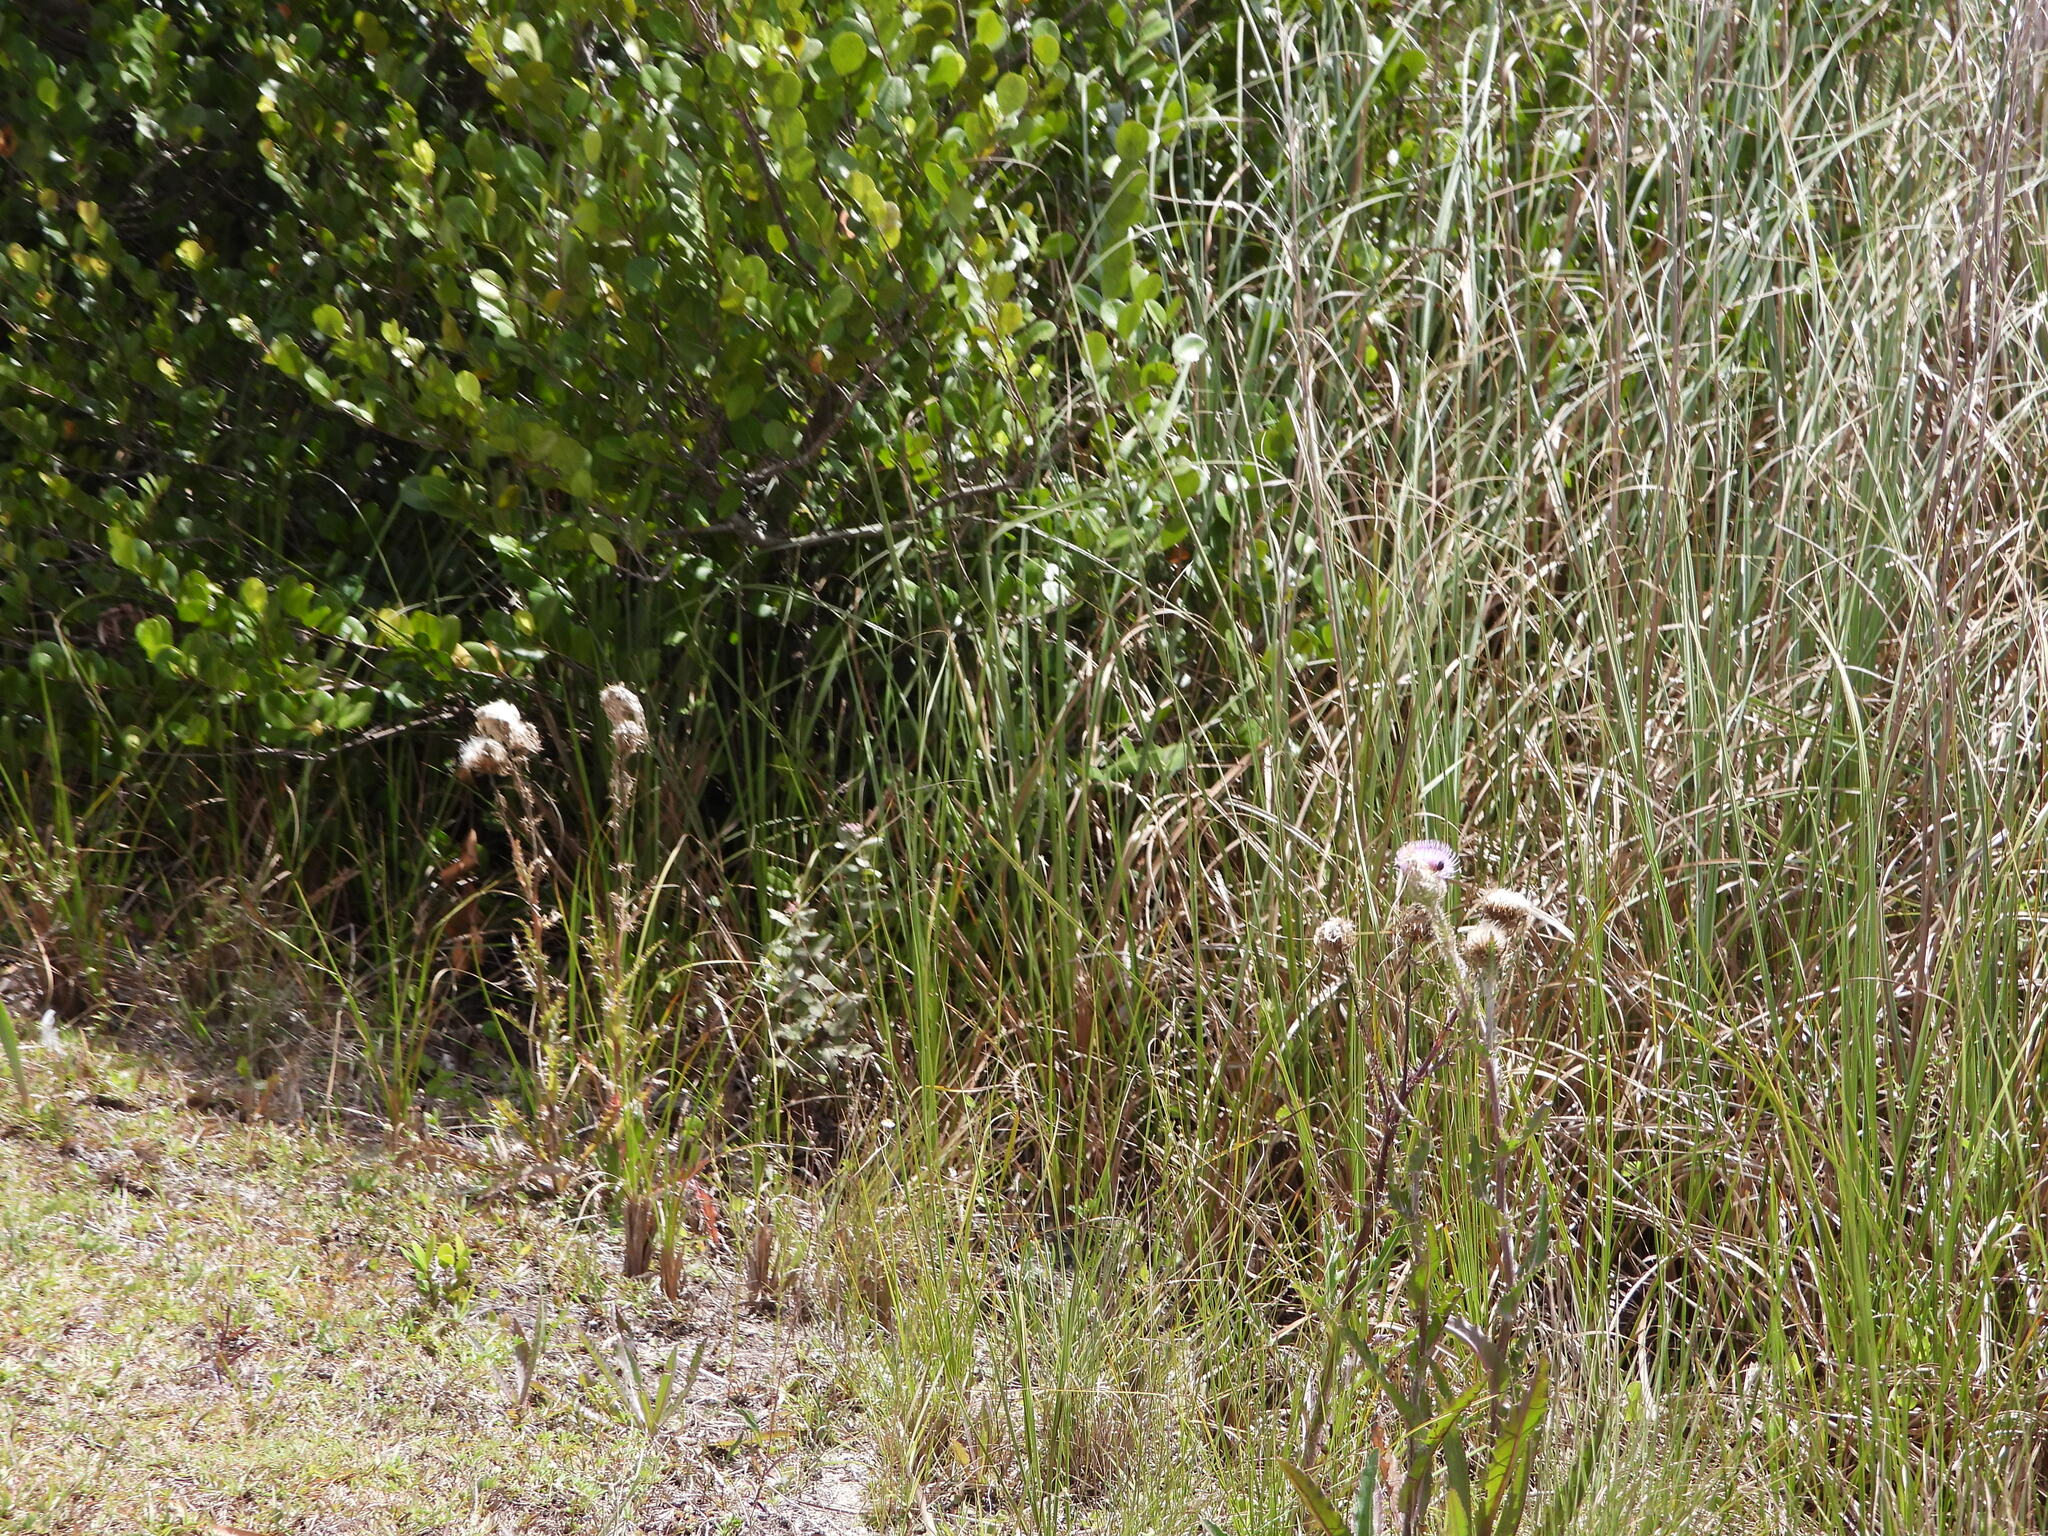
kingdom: Plantae
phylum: Tracheophyta
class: Magnoliopsida
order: Asterales
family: Asteraceae
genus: Cirsium
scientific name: Cirsium horridulum
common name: Bristly thistle
